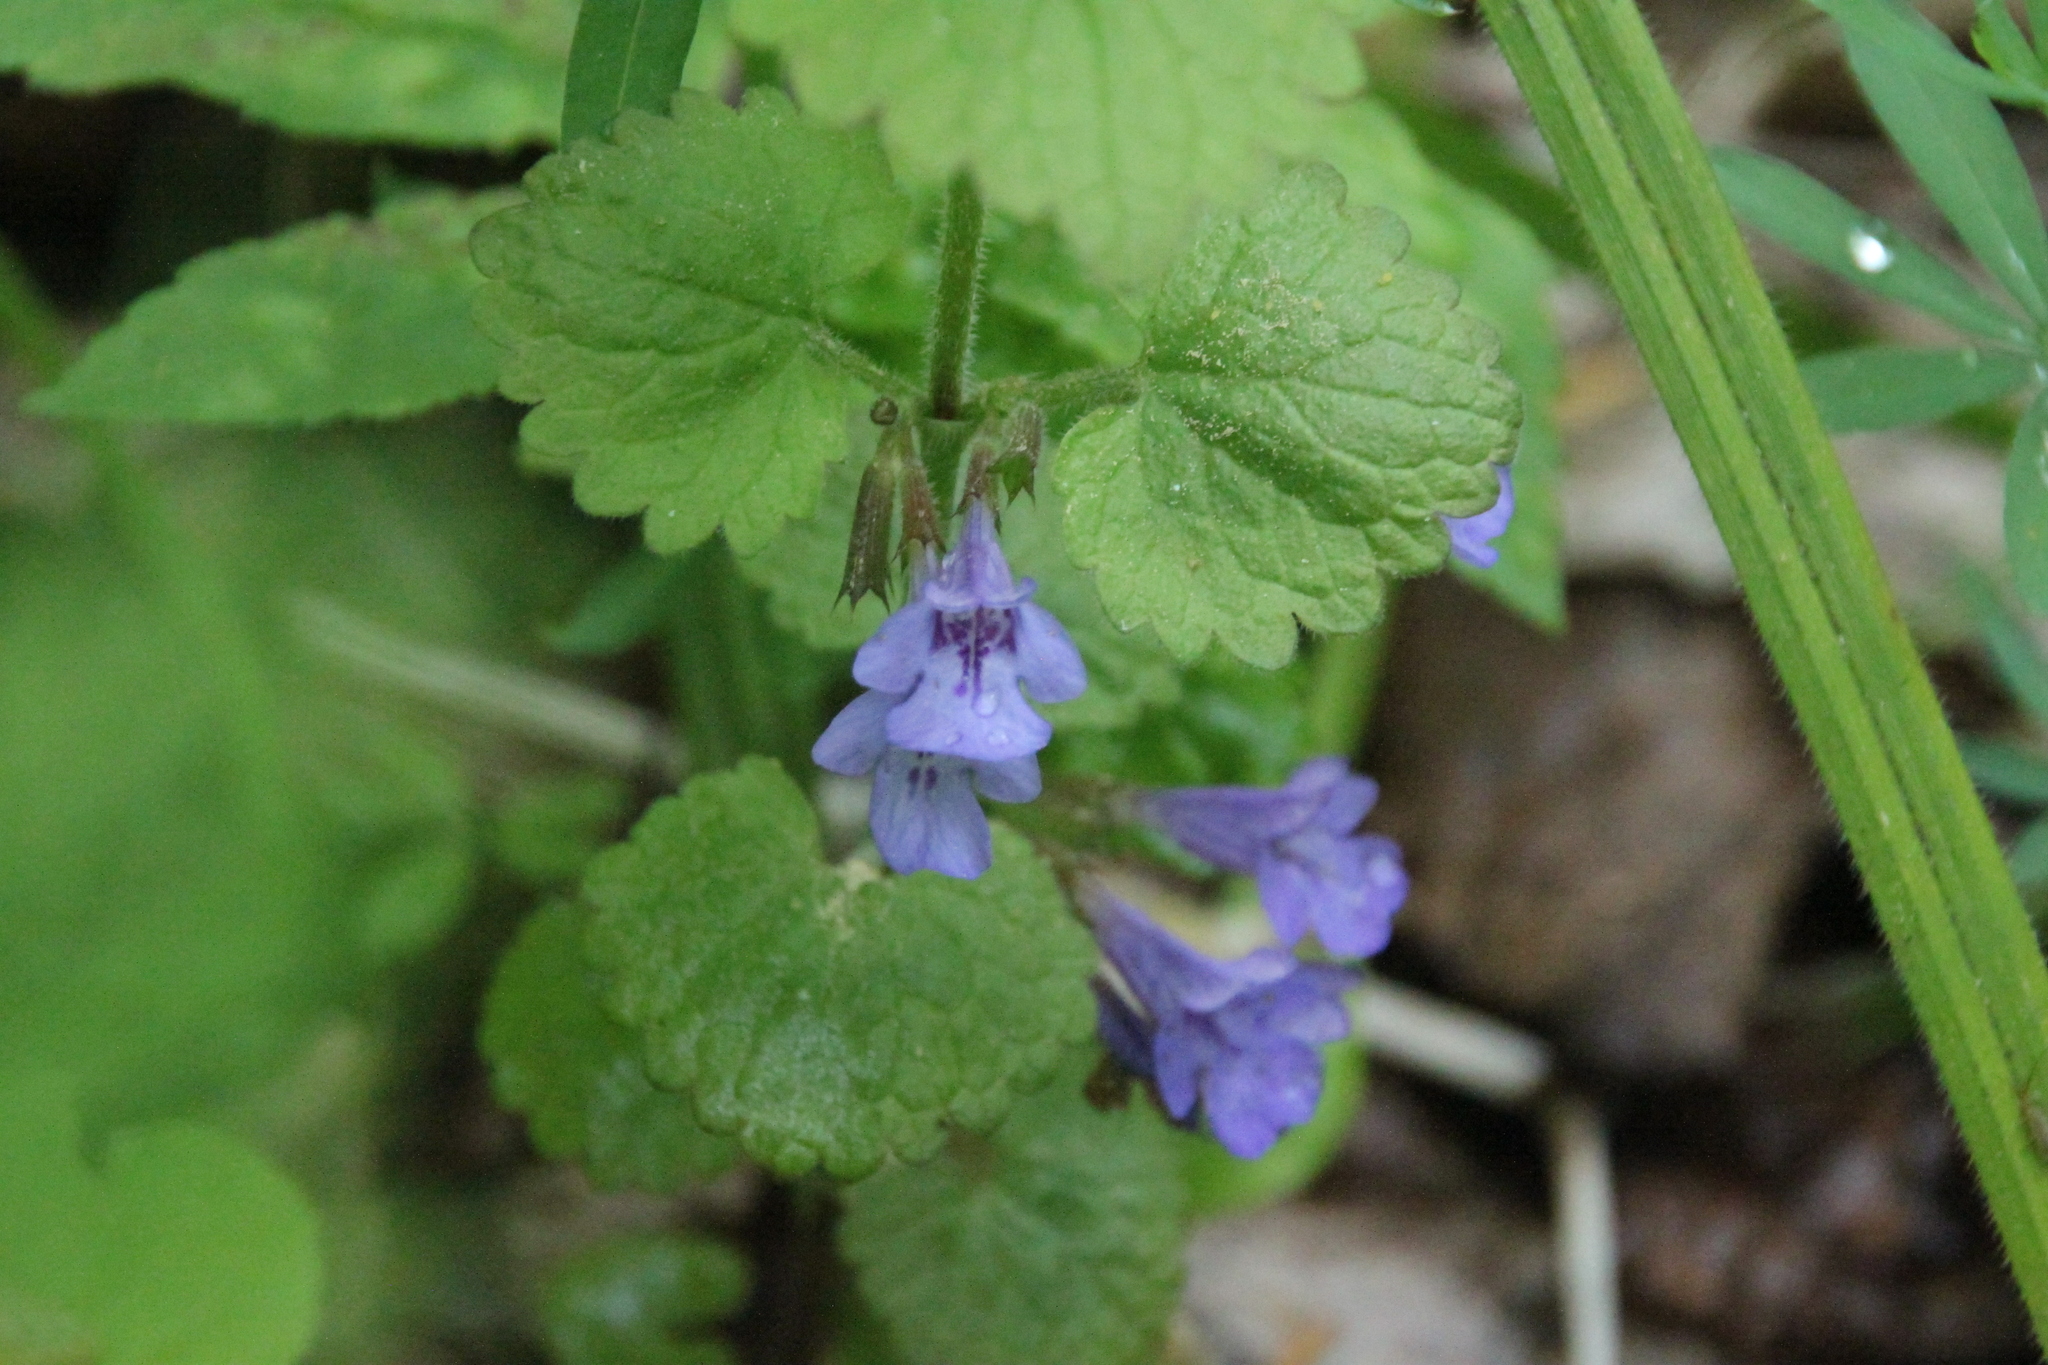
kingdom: Plantae
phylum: Tracheophyta
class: Magnoliopsida
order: Lamiales
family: Lamiaceae
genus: Glechoma
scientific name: Glechoma hederacea
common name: Ground ivy
